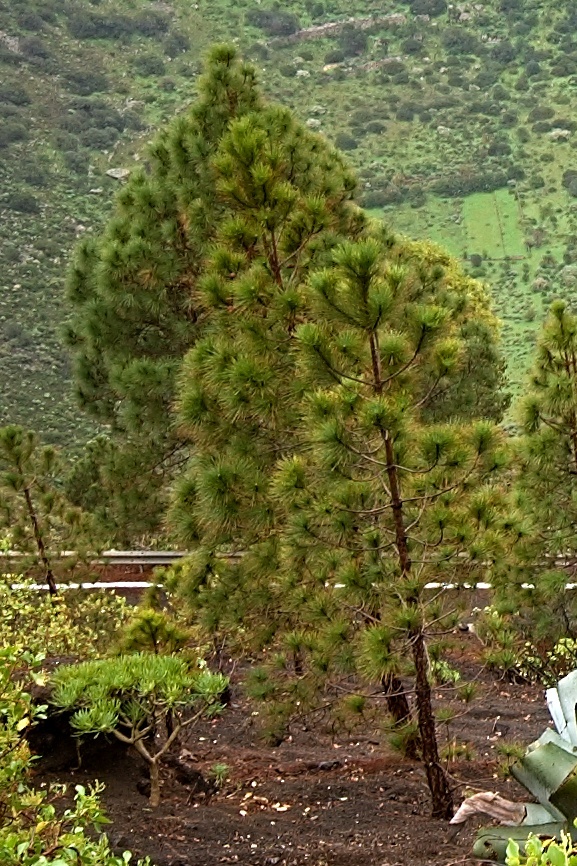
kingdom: Plantae
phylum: Tracheophyta
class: Pinopsida
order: Pinales
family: Pinaceae
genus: Pinus
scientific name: Pinus canariensis
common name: Canary islands pine
